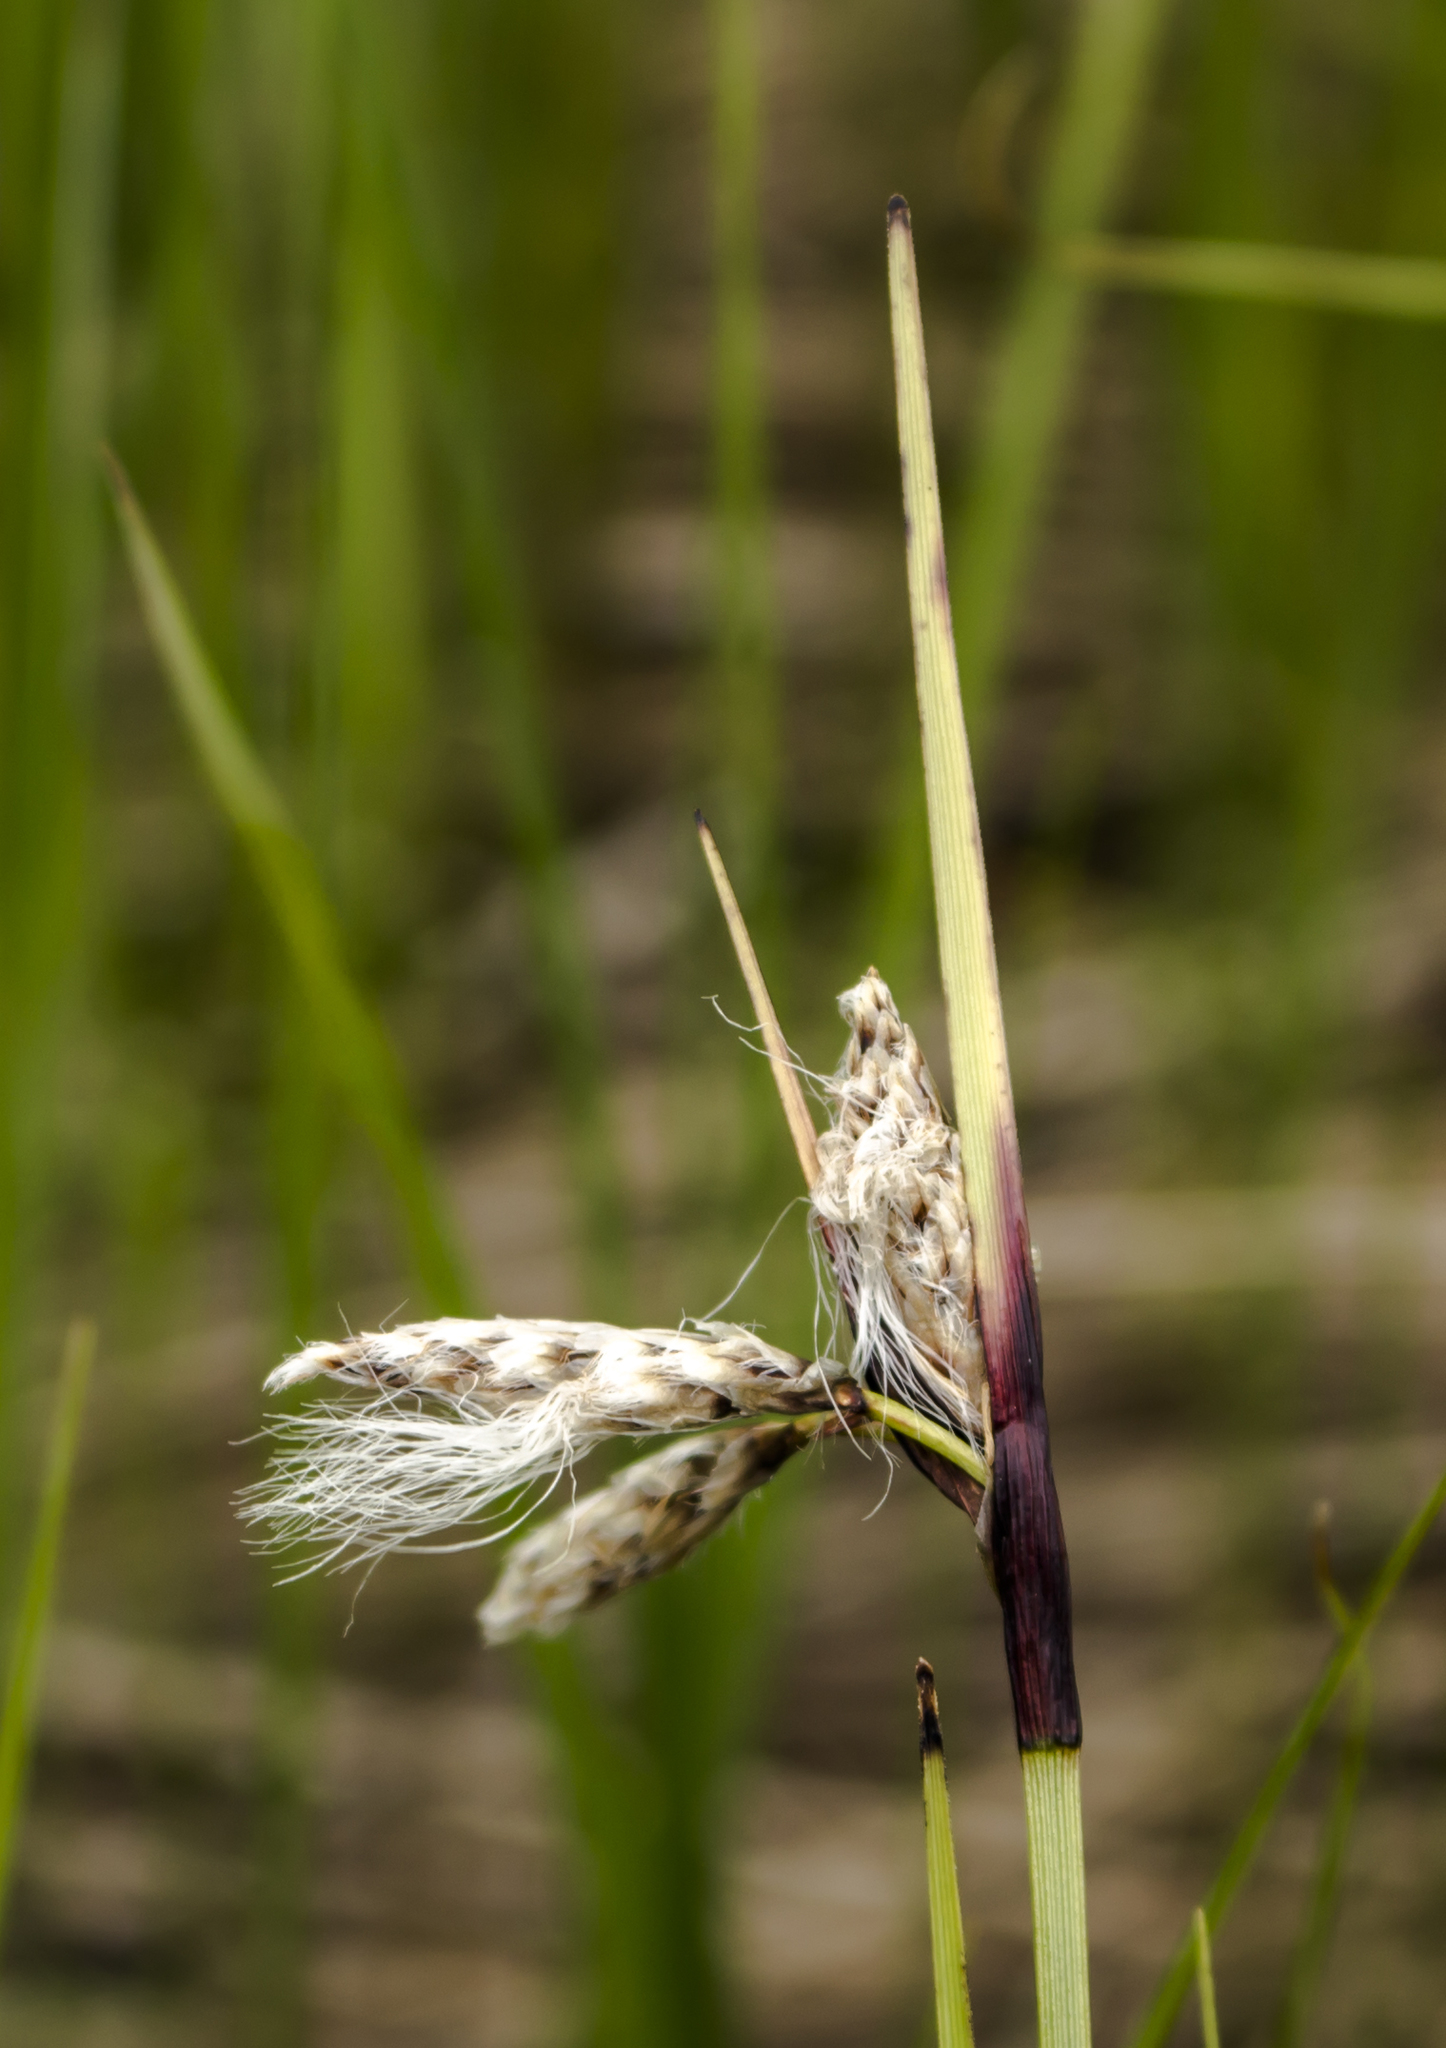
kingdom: Plantae
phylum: Tracheophyta
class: Liliopsida
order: Poales
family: Cyperaceae
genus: Eriophorum
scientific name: Eriophorum angustifolium
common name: Common cottongrass
